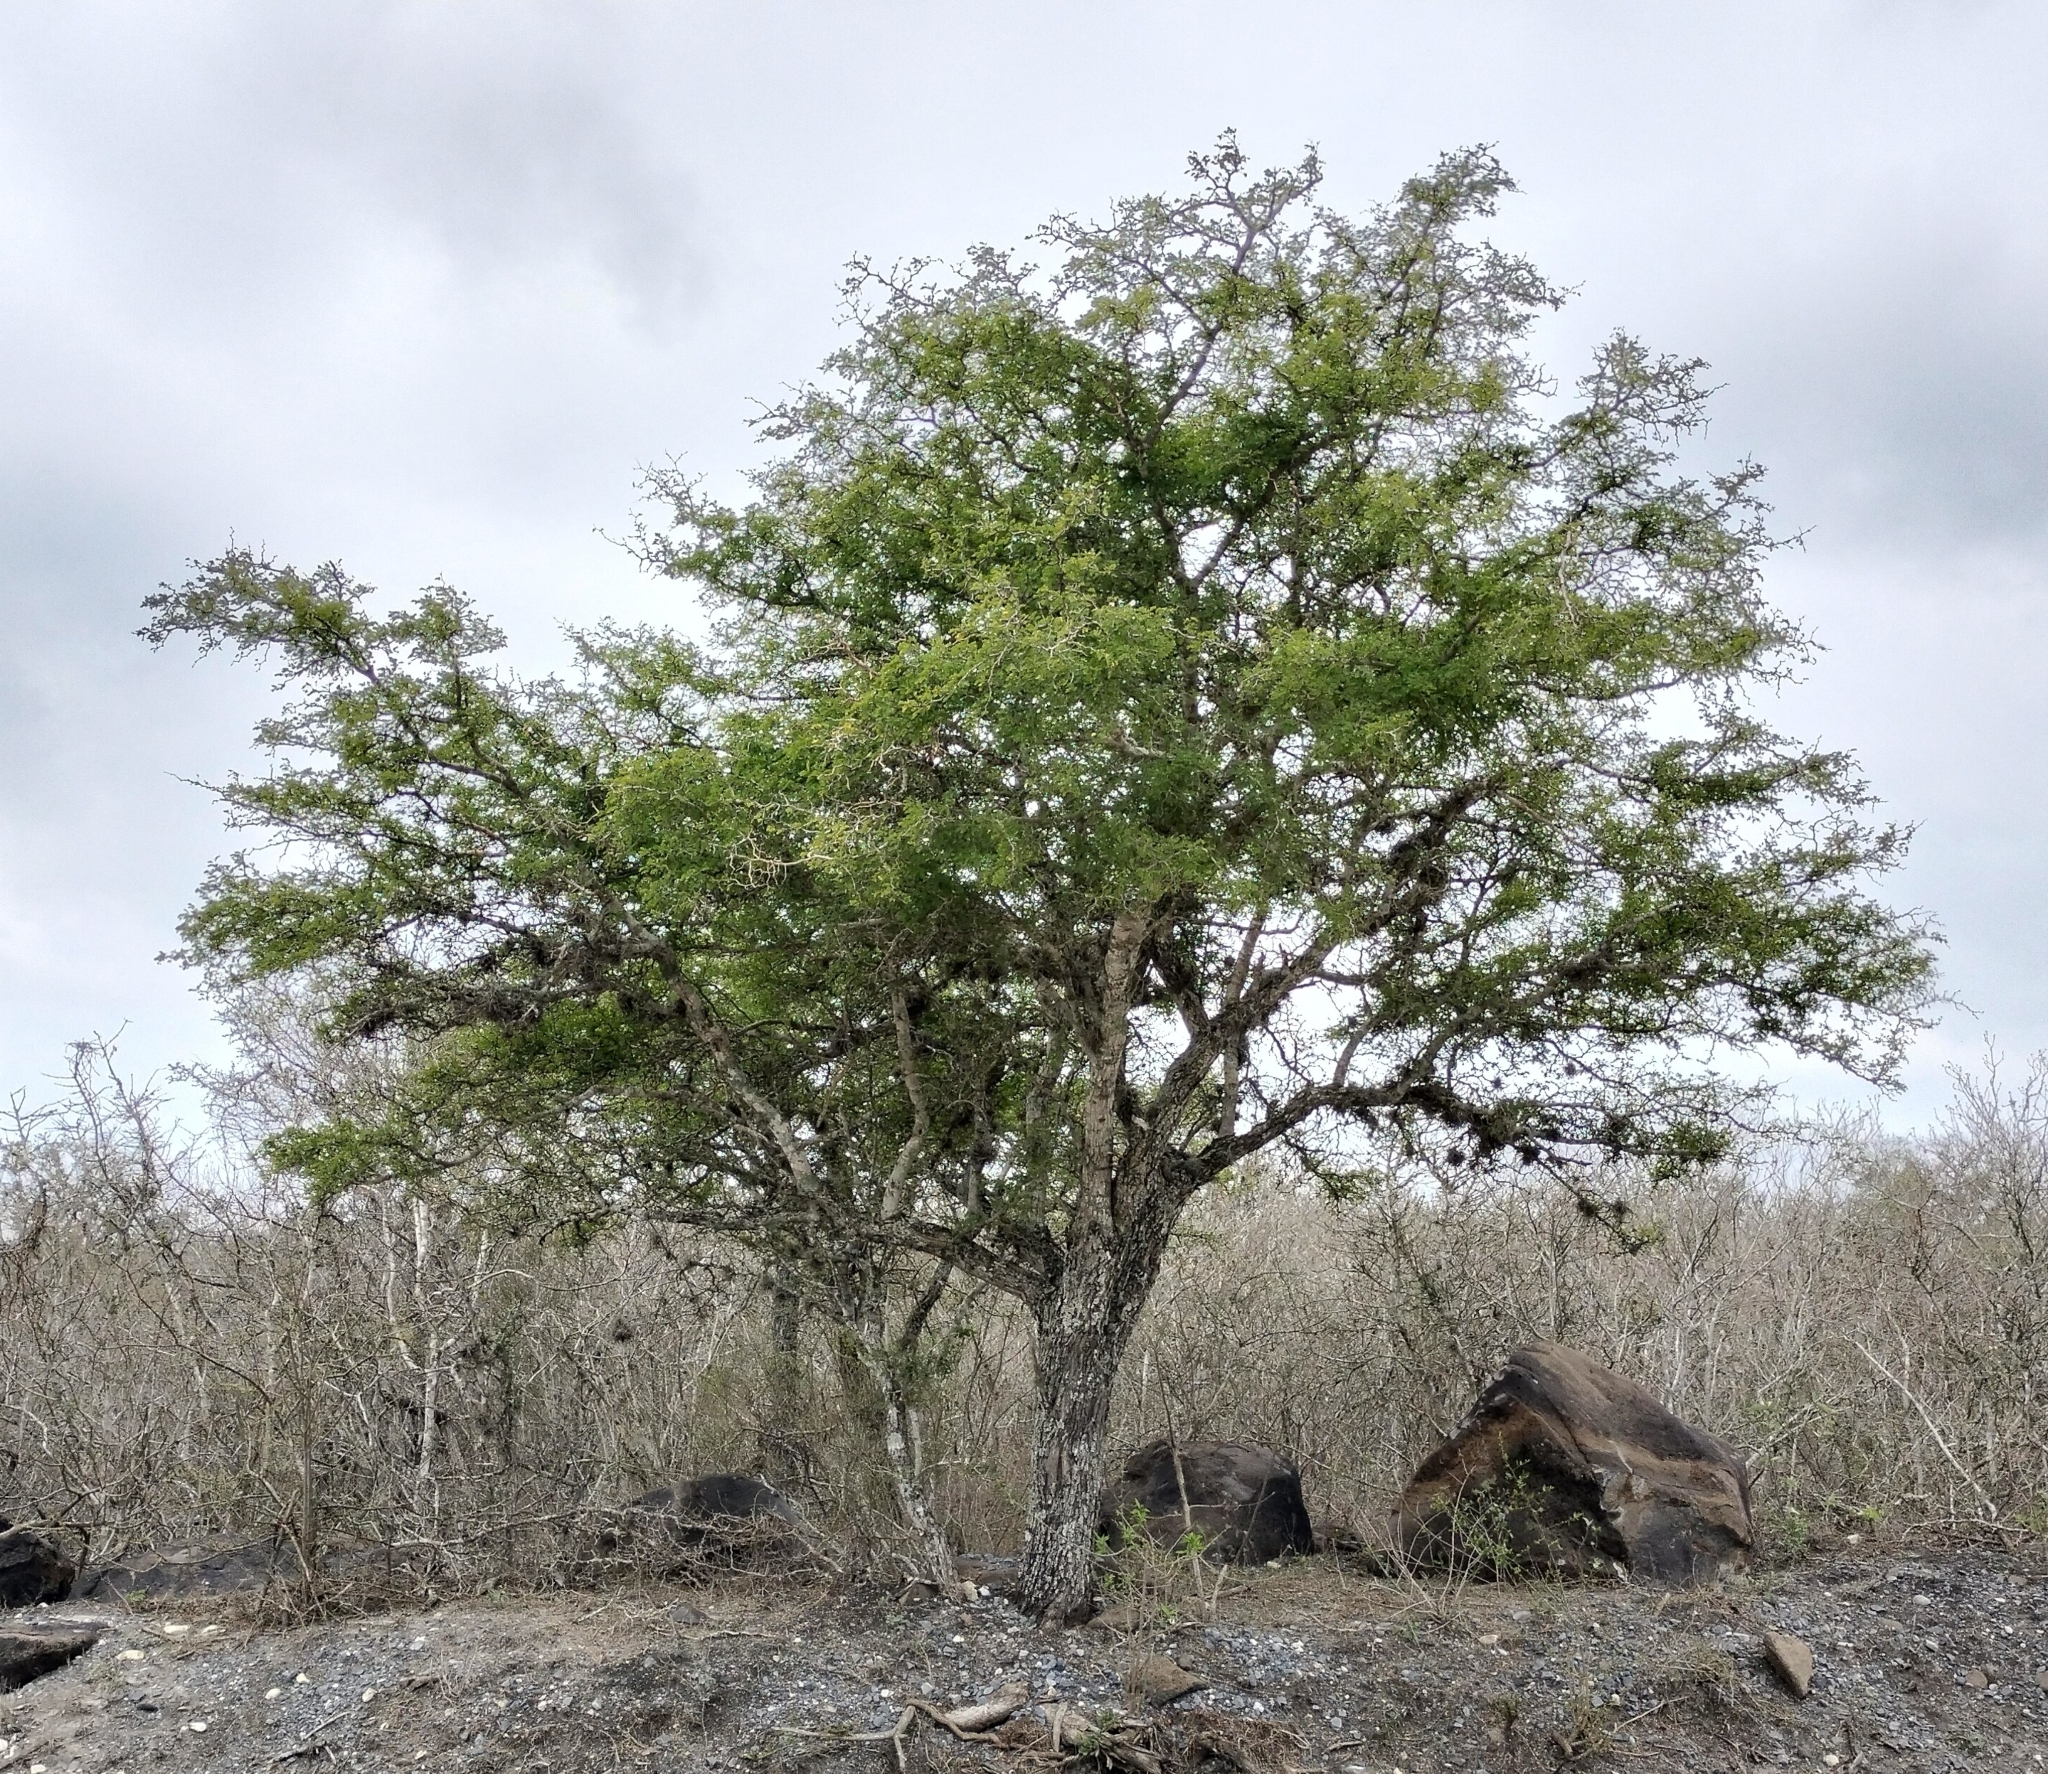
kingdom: Plantae
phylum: Tracheophyta
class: Magnoliopsida
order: Fabales
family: Fabaceae
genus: Ebenopsis
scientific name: Ebenopsis ebano
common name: Ebony blackbead
